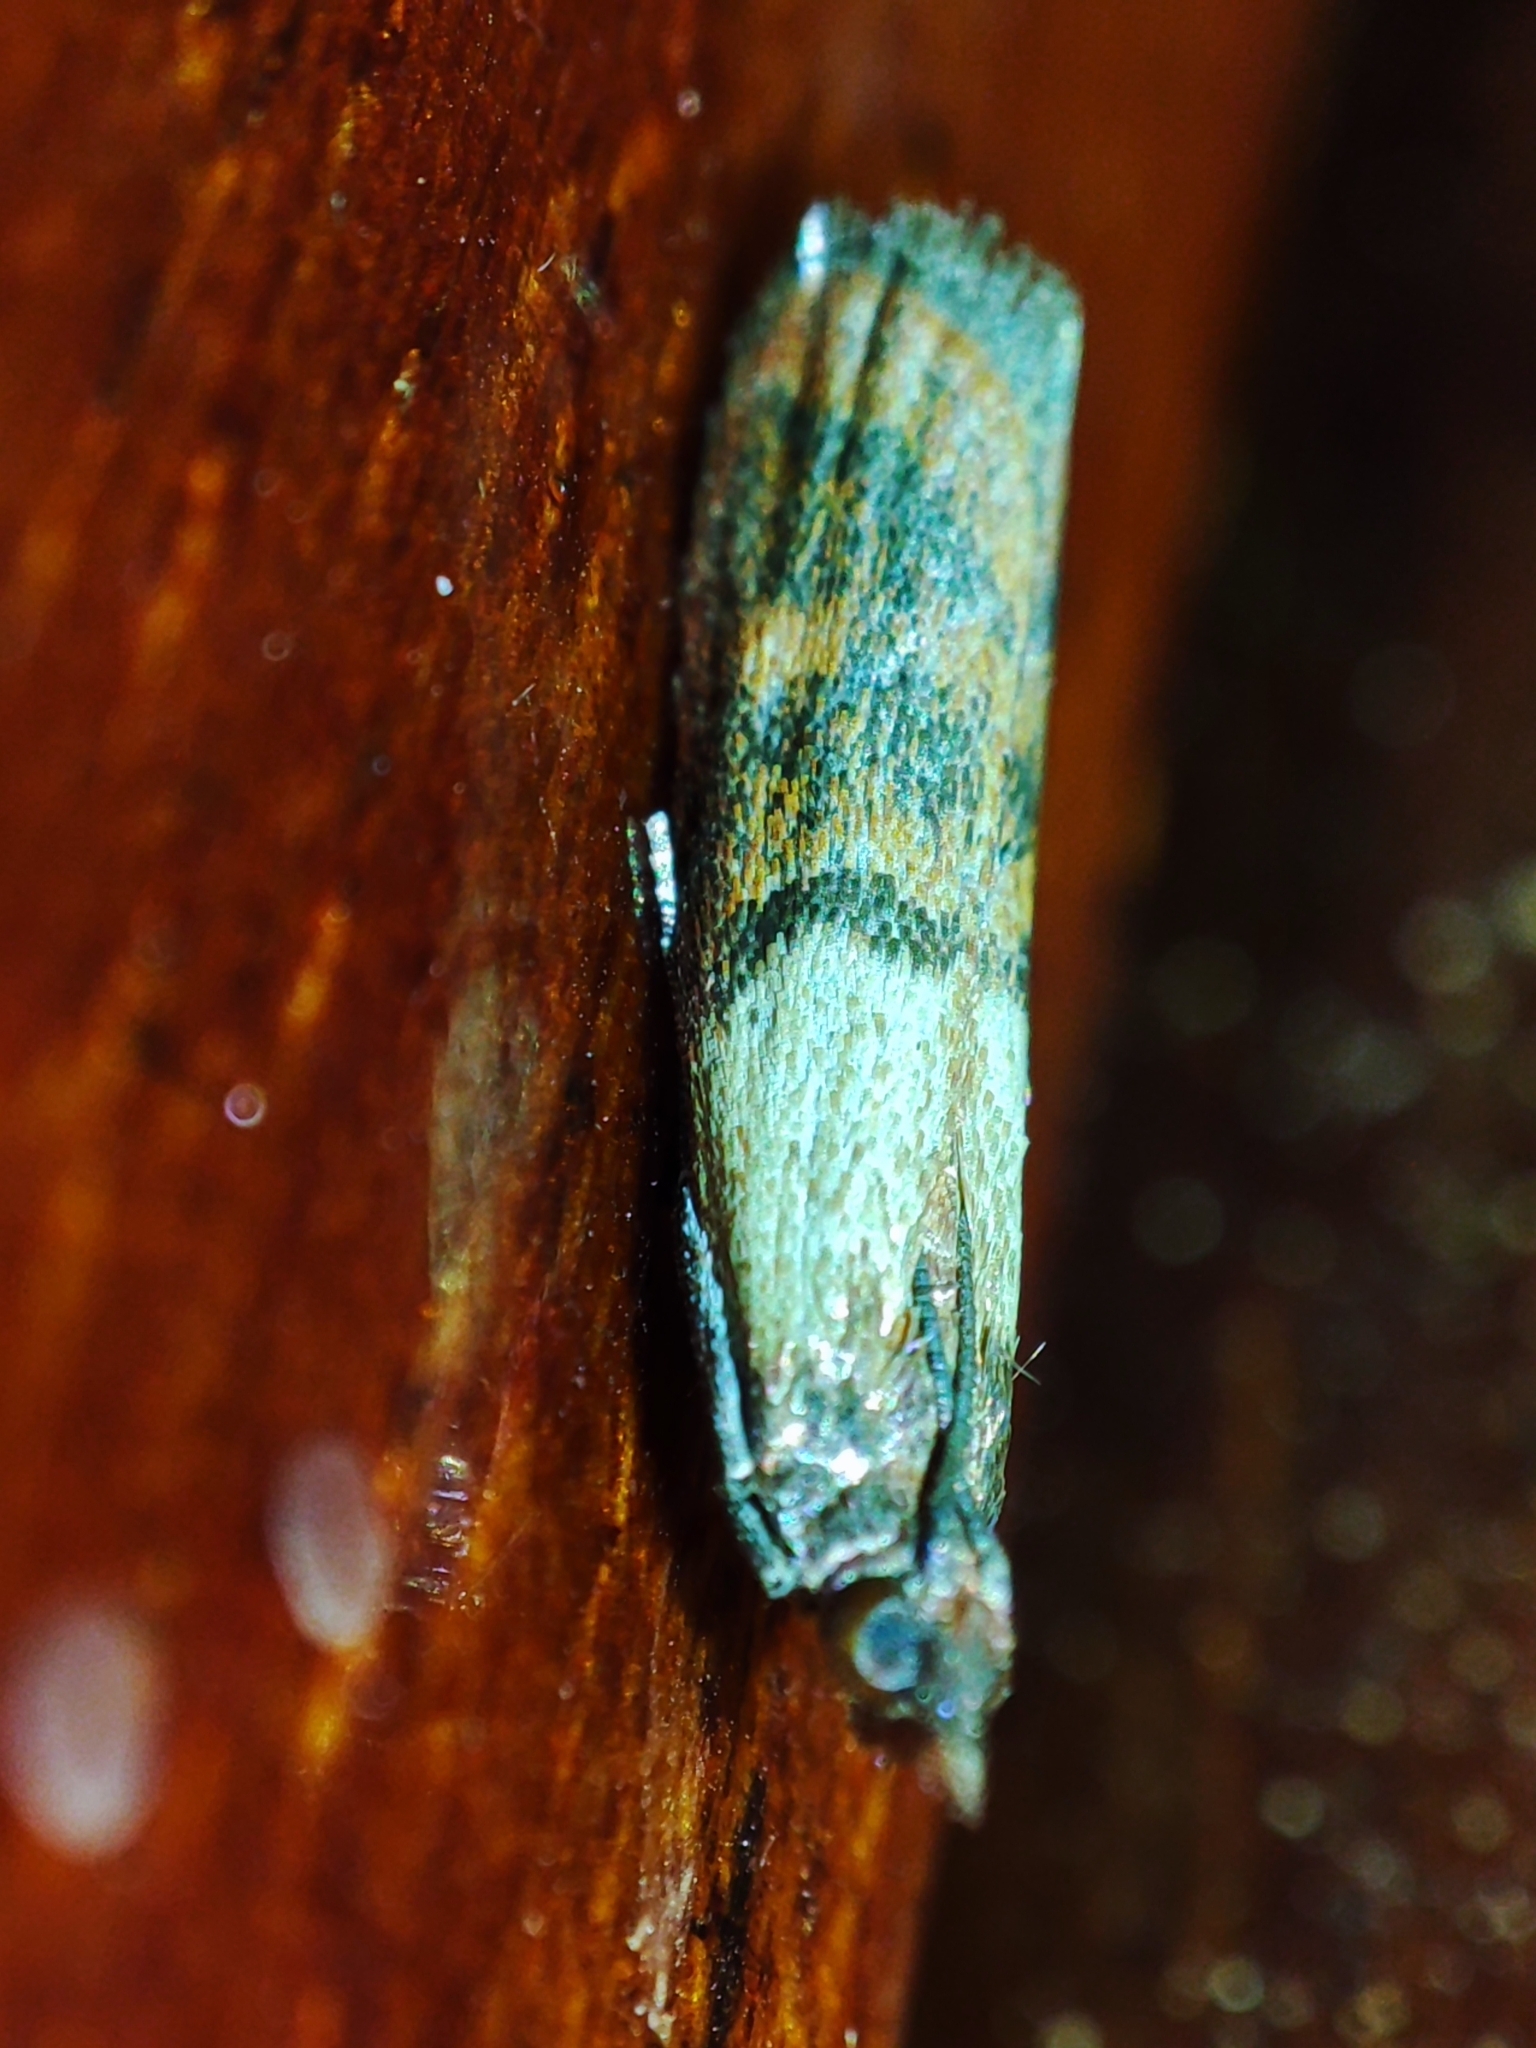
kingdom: Animalia
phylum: Arthropoda
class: Insecta
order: Lepidoptera
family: Pyralidae
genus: Plodia
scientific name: Plodia interpunctella
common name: Indian meal moth
